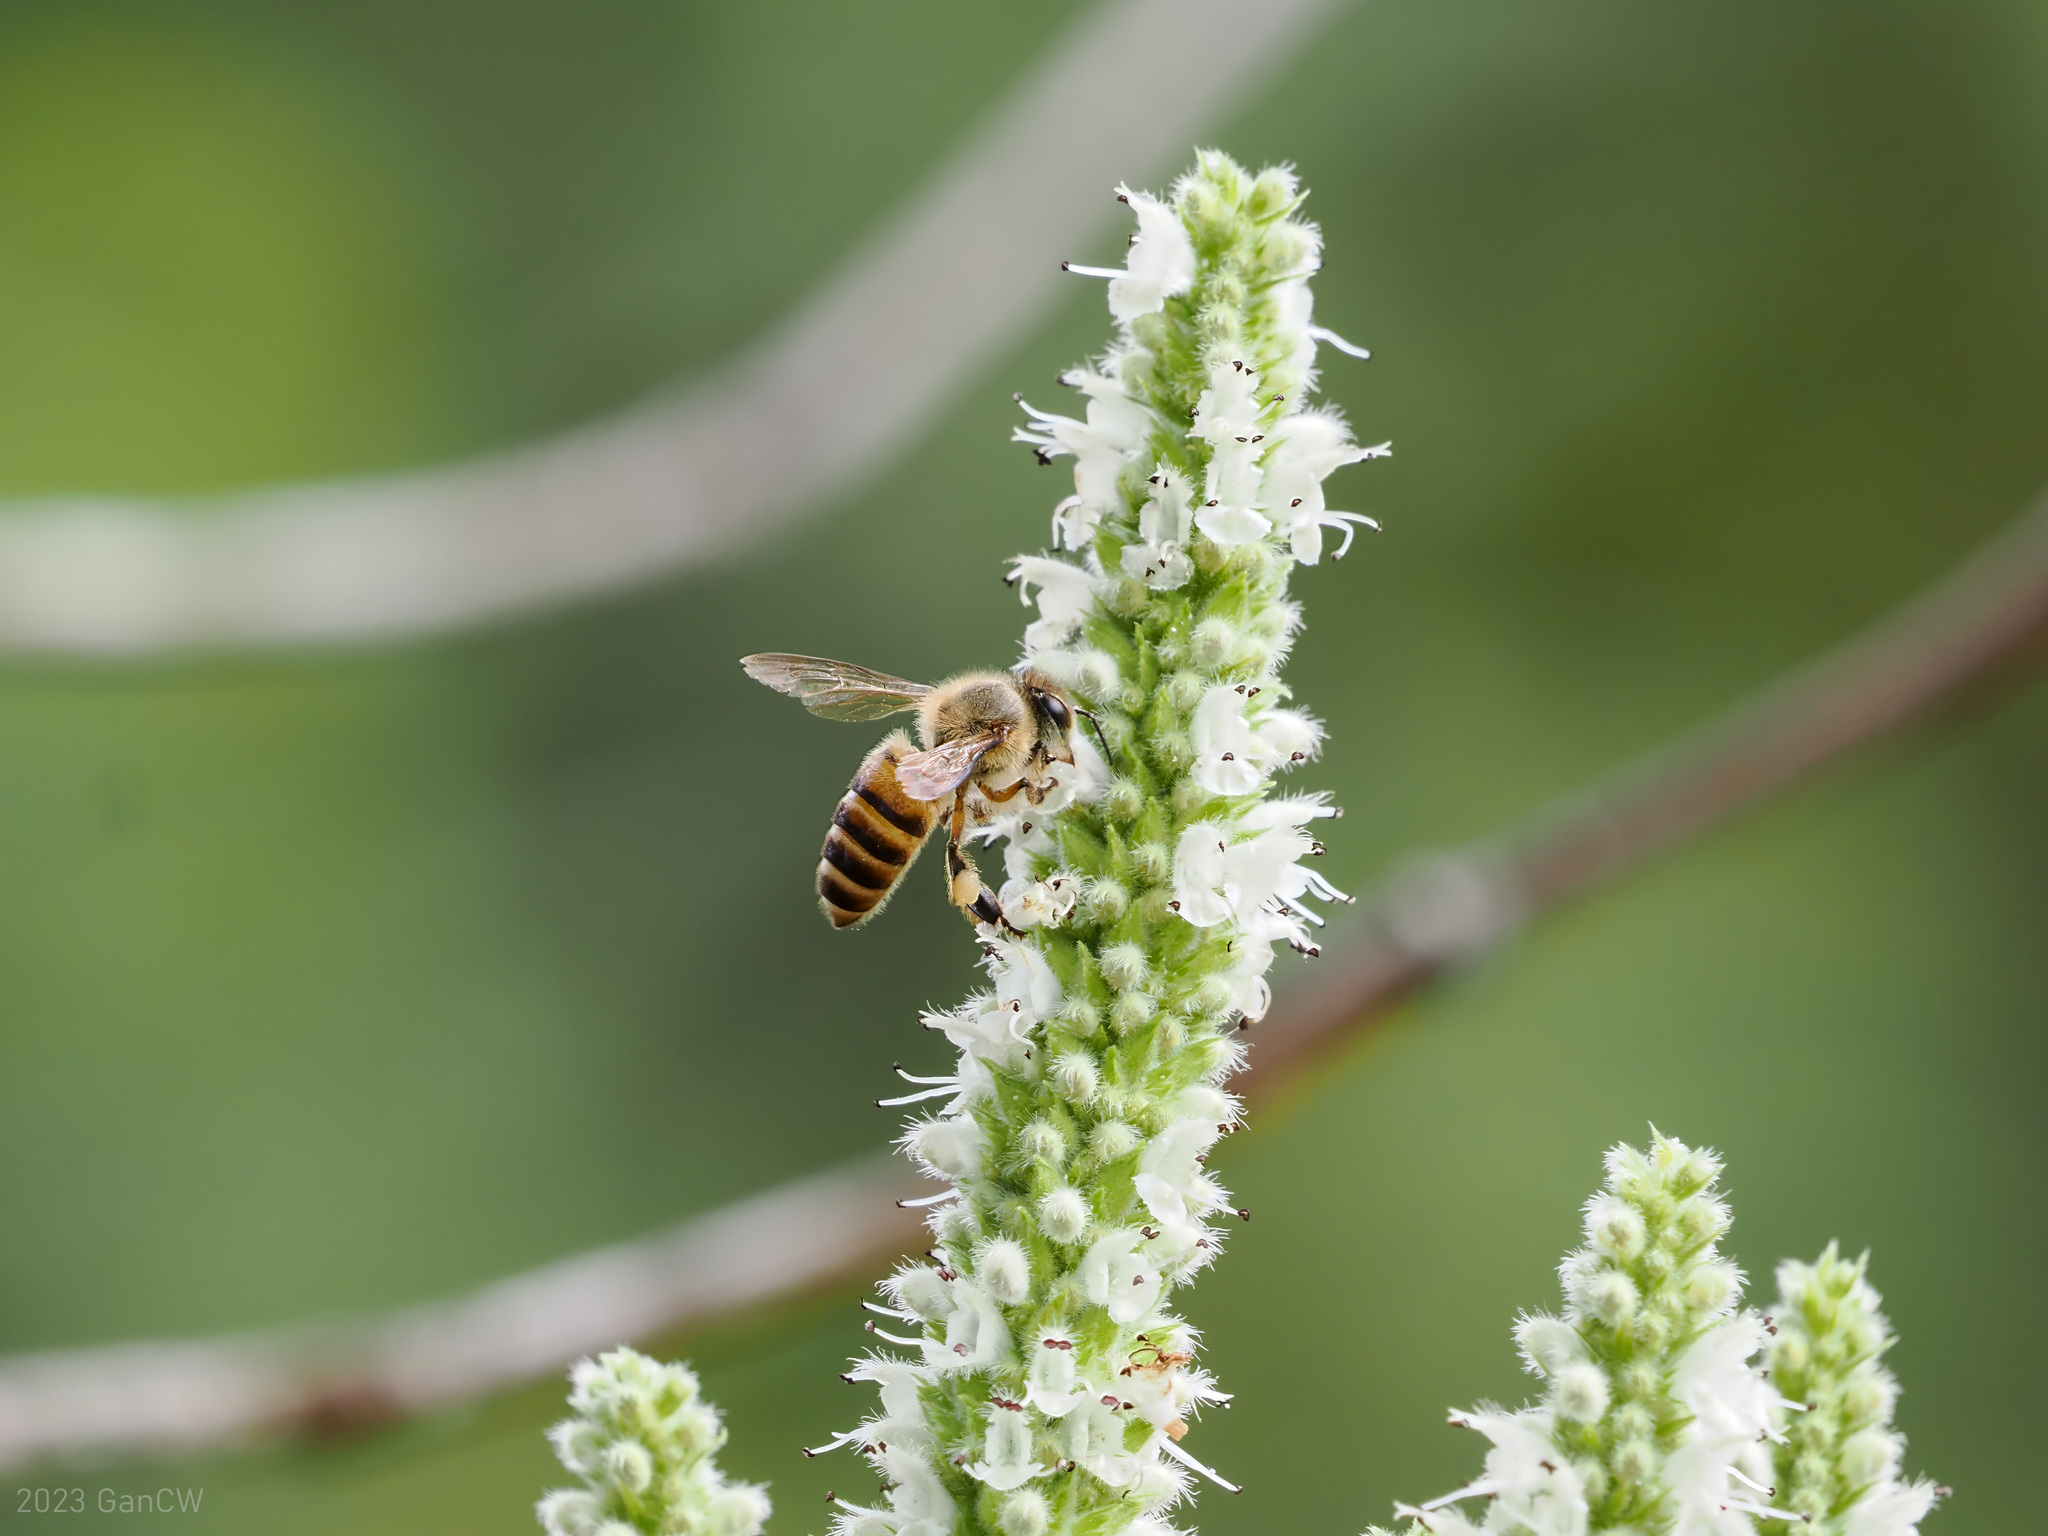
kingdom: Animalia
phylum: Arthropoda
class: Insecta
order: Hymenoptera
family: Apidae
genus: Apis
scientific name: Apis nigrocincta
